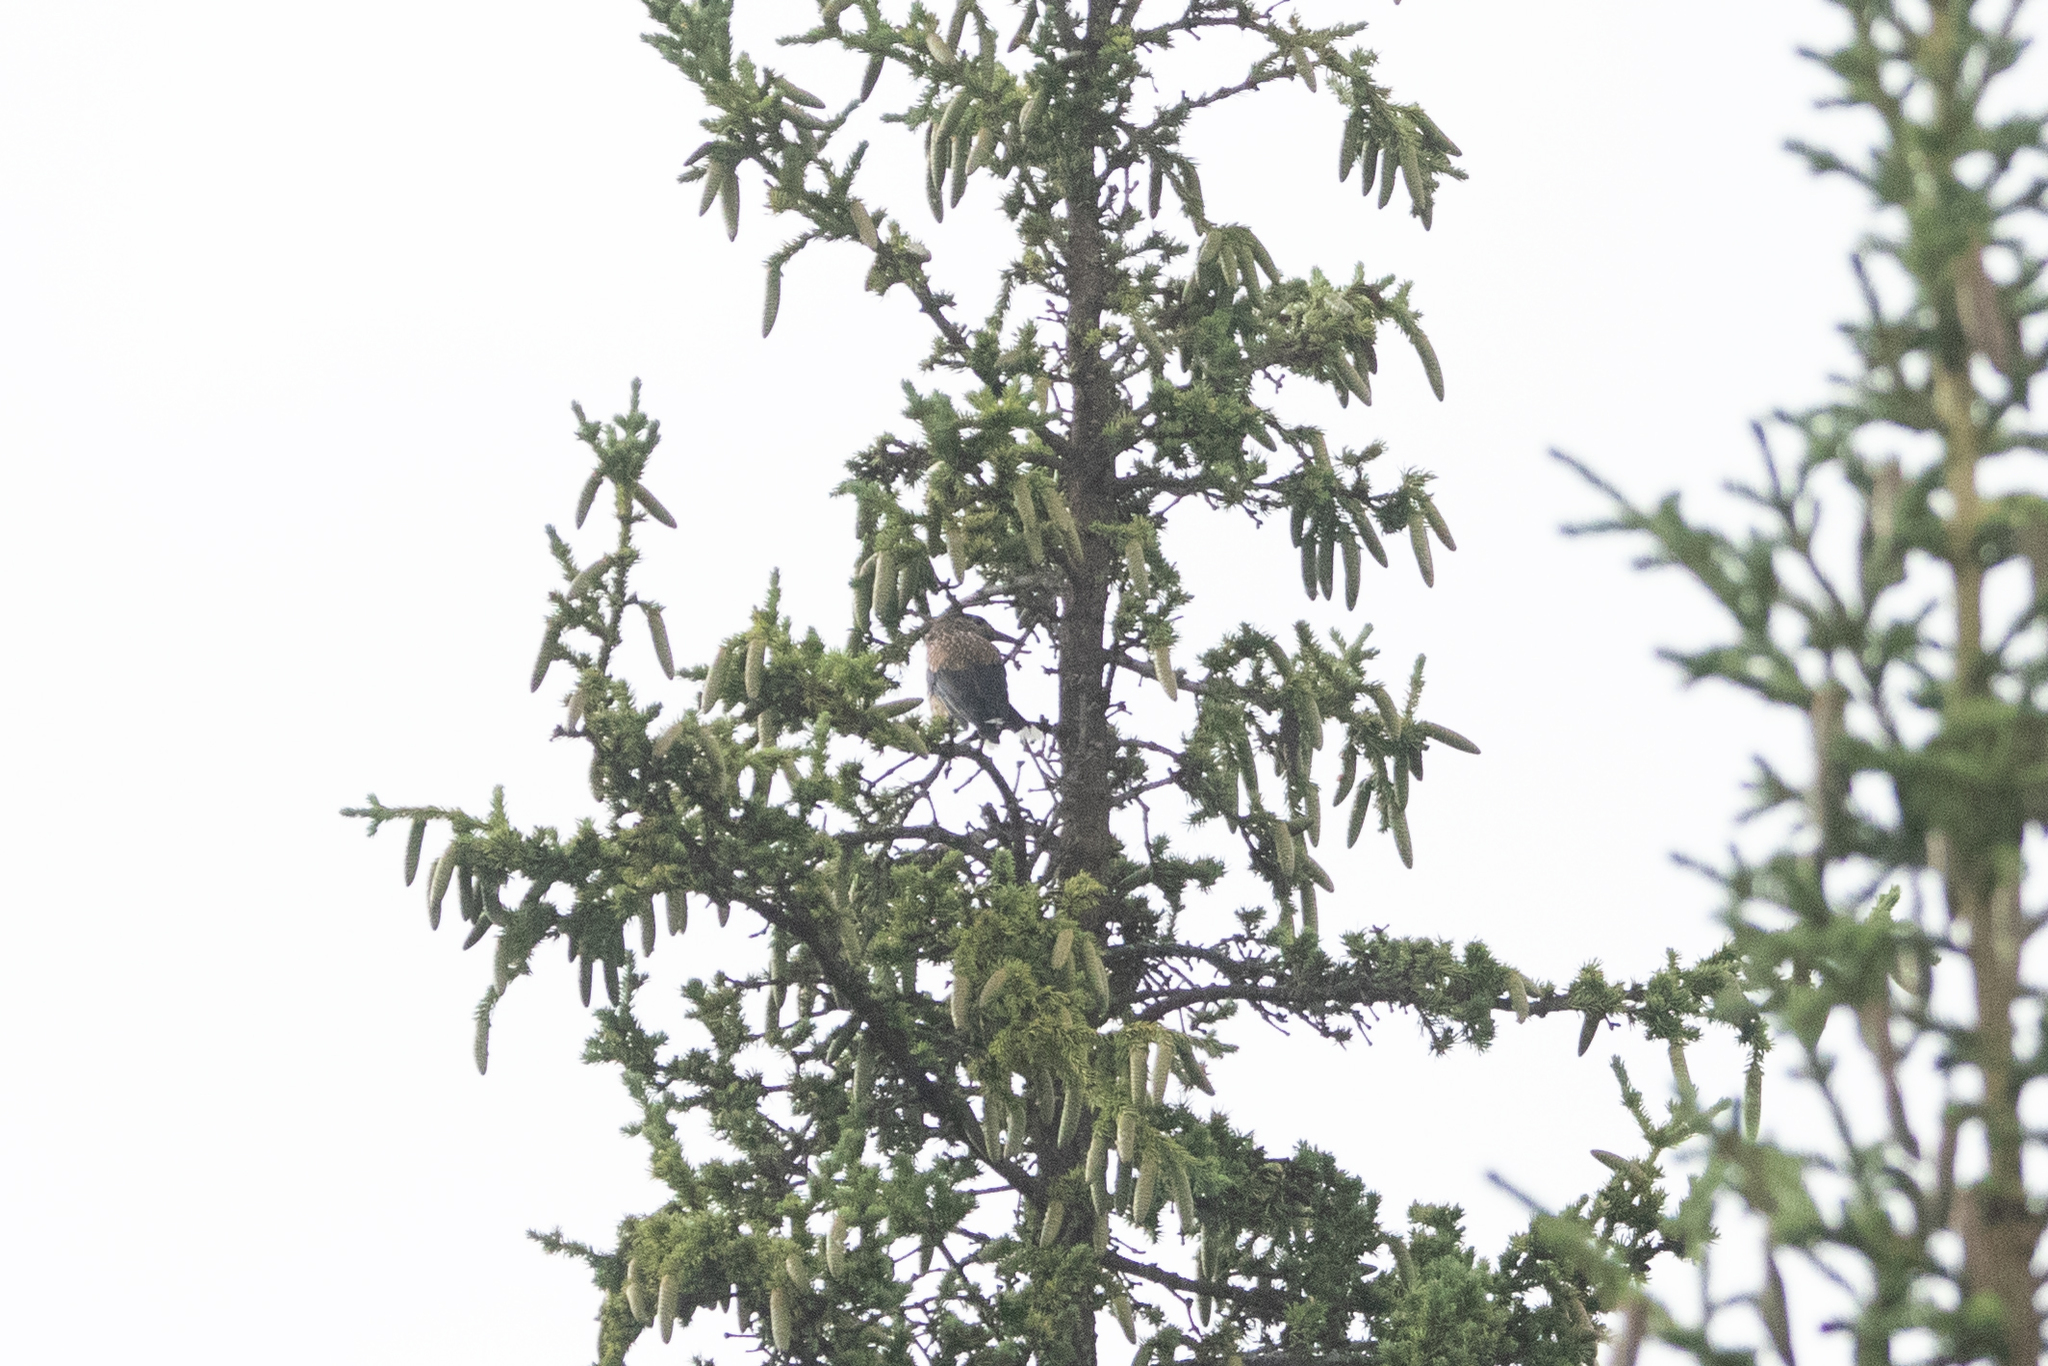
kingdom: Animalia
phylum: Chordata
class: Aves
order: Passeriformes
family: Corvidae
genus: Nucifraga
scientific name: Nucifraga caryocatactes
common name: Spotted nutcracker
